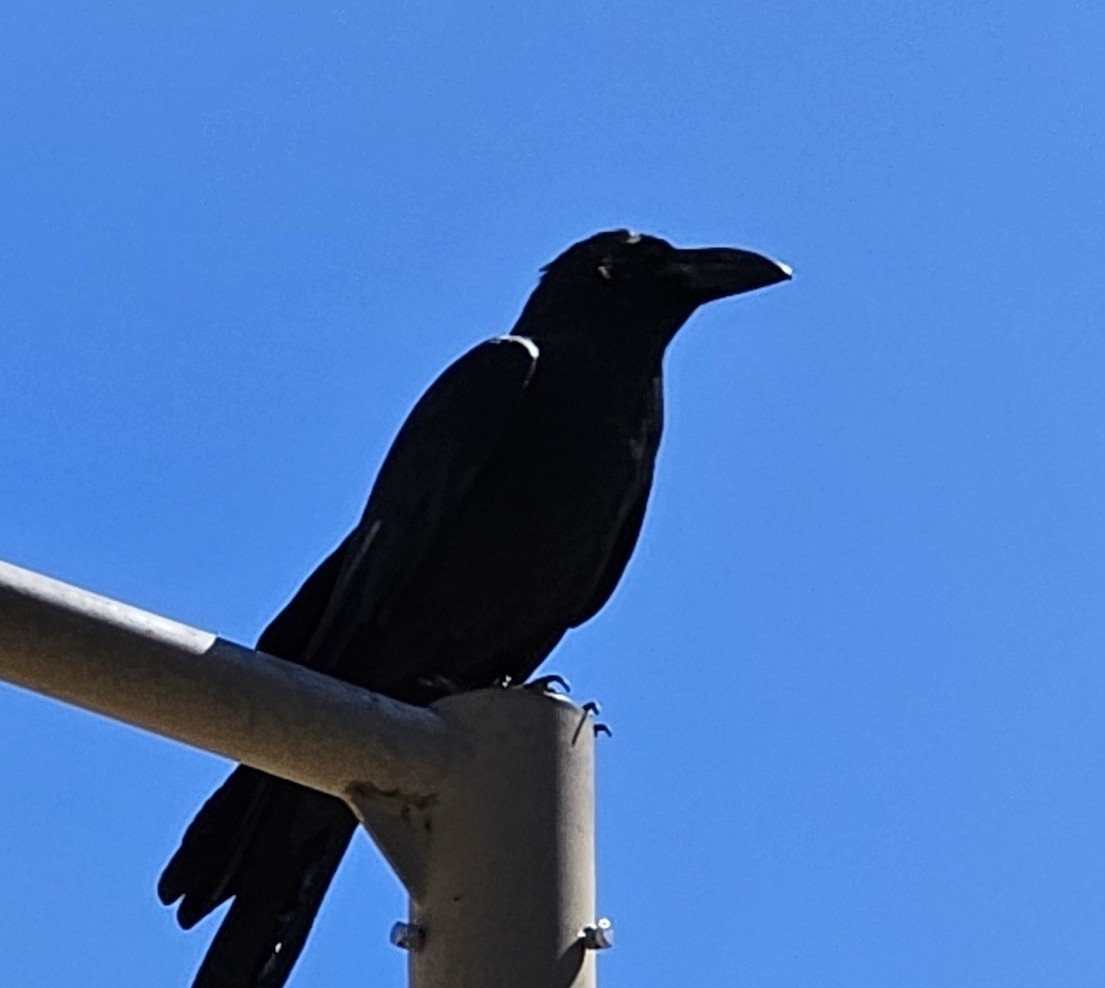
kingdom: Animalia
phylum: Chordata
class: Aves
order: Passeriformes
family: Corvidae
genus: Corvus
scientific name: Corvus macrorhynchos
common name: Large-billed crow
